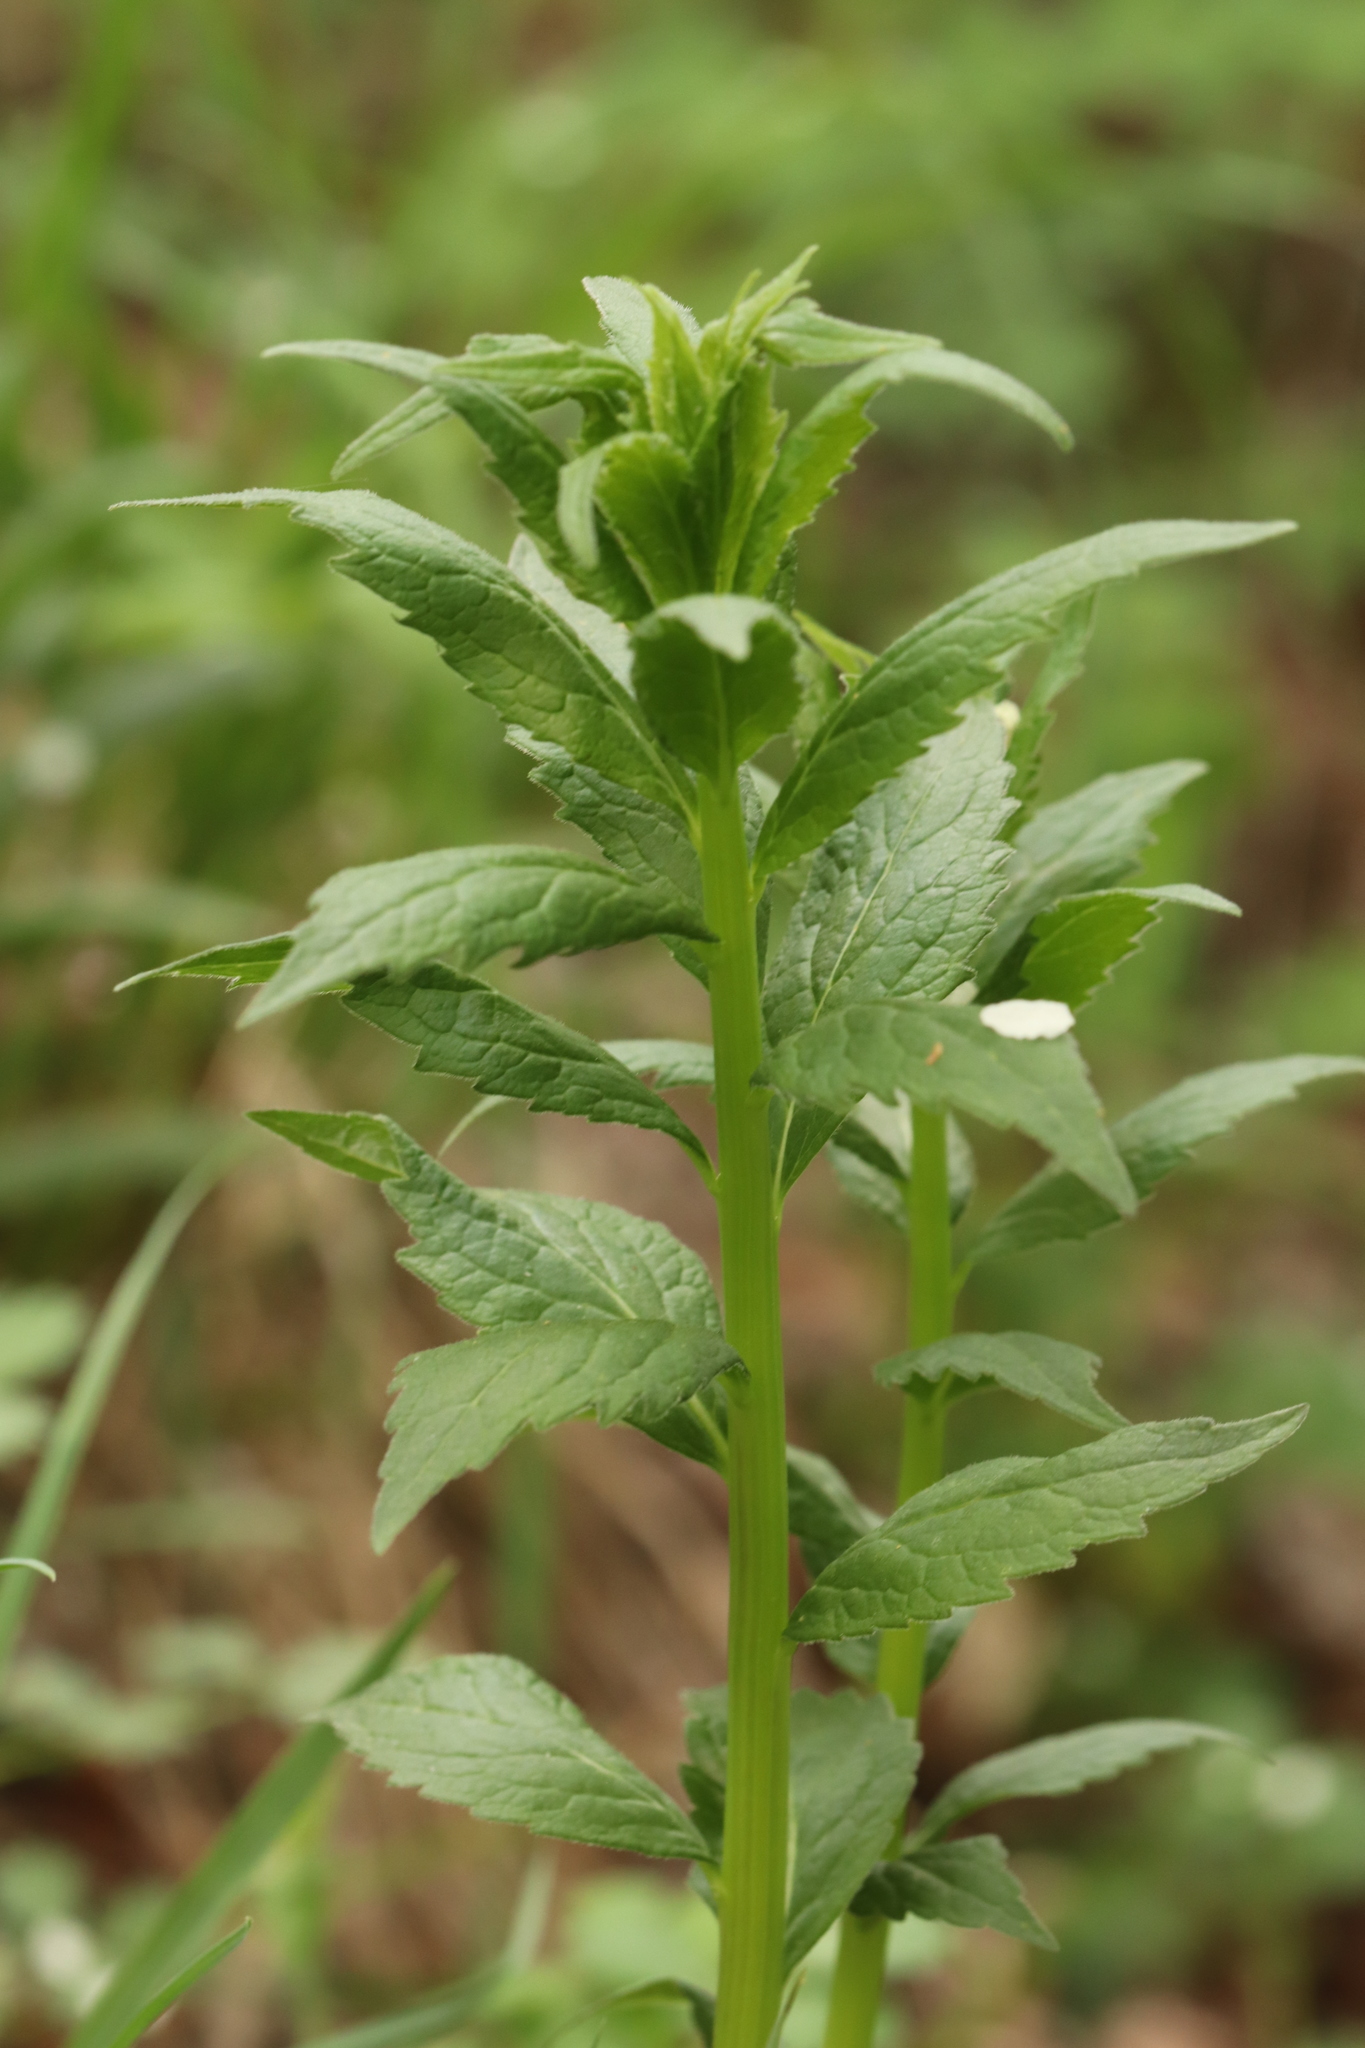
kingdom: Plantae
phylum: Tracheophyta
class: Magnoliopsida
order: Asterales
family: Campanulaceae
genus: Adenophora
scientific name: Adenophora liliifolia
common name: Lilyleaf ladybells
